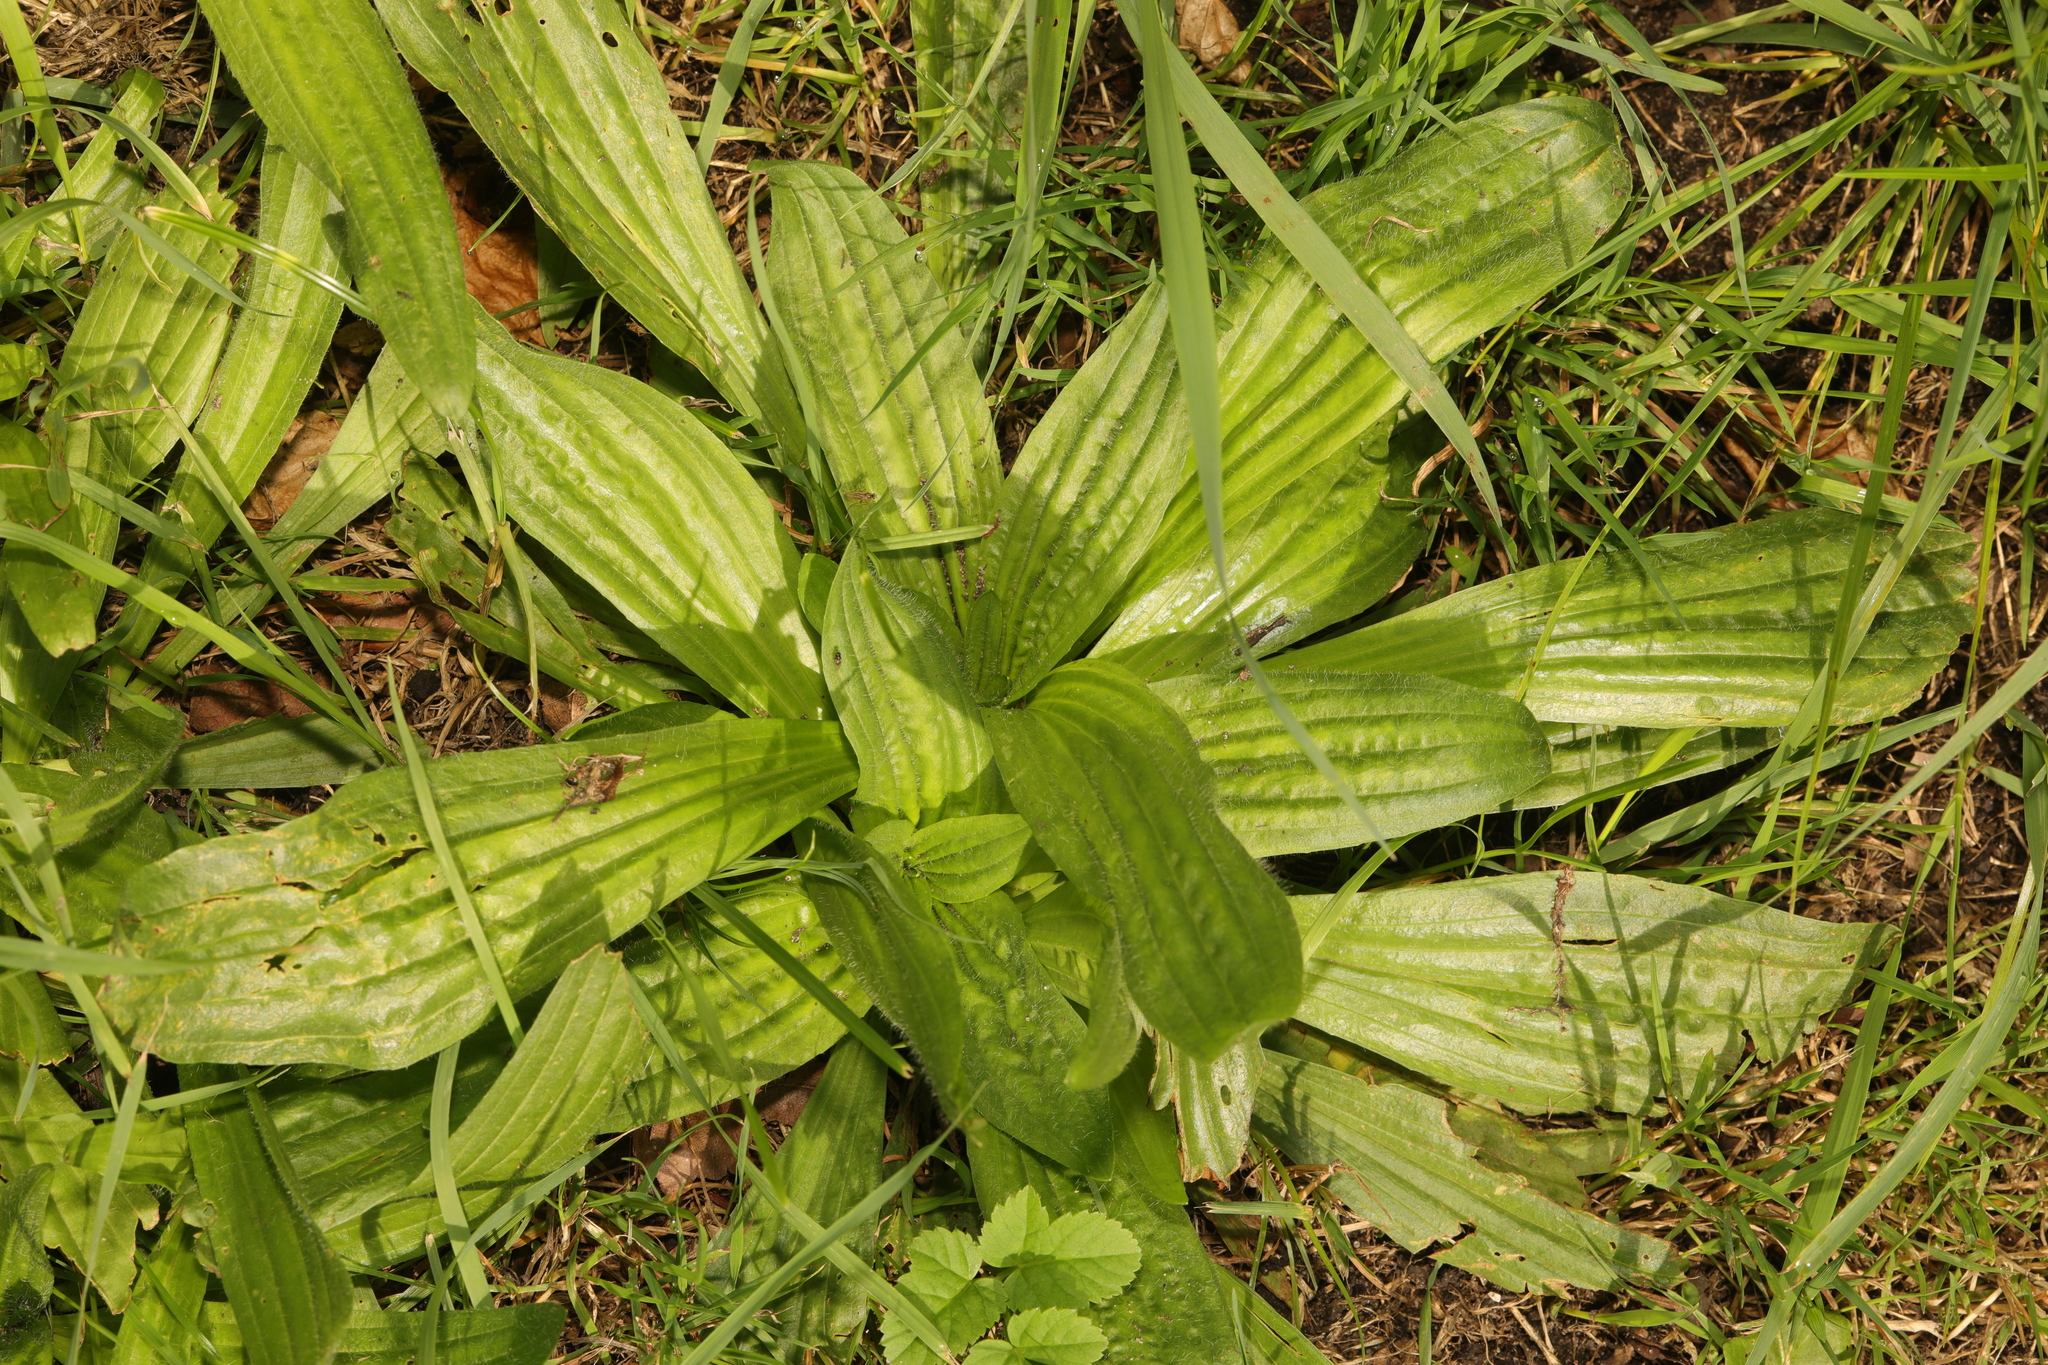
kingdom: Plantae
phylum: Tracheophyta
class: Magnoliopsida
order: Lamiales
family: Plantaginaceae
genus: Plantago
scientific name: Plantago lanceolata
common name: Ribwort plantain
